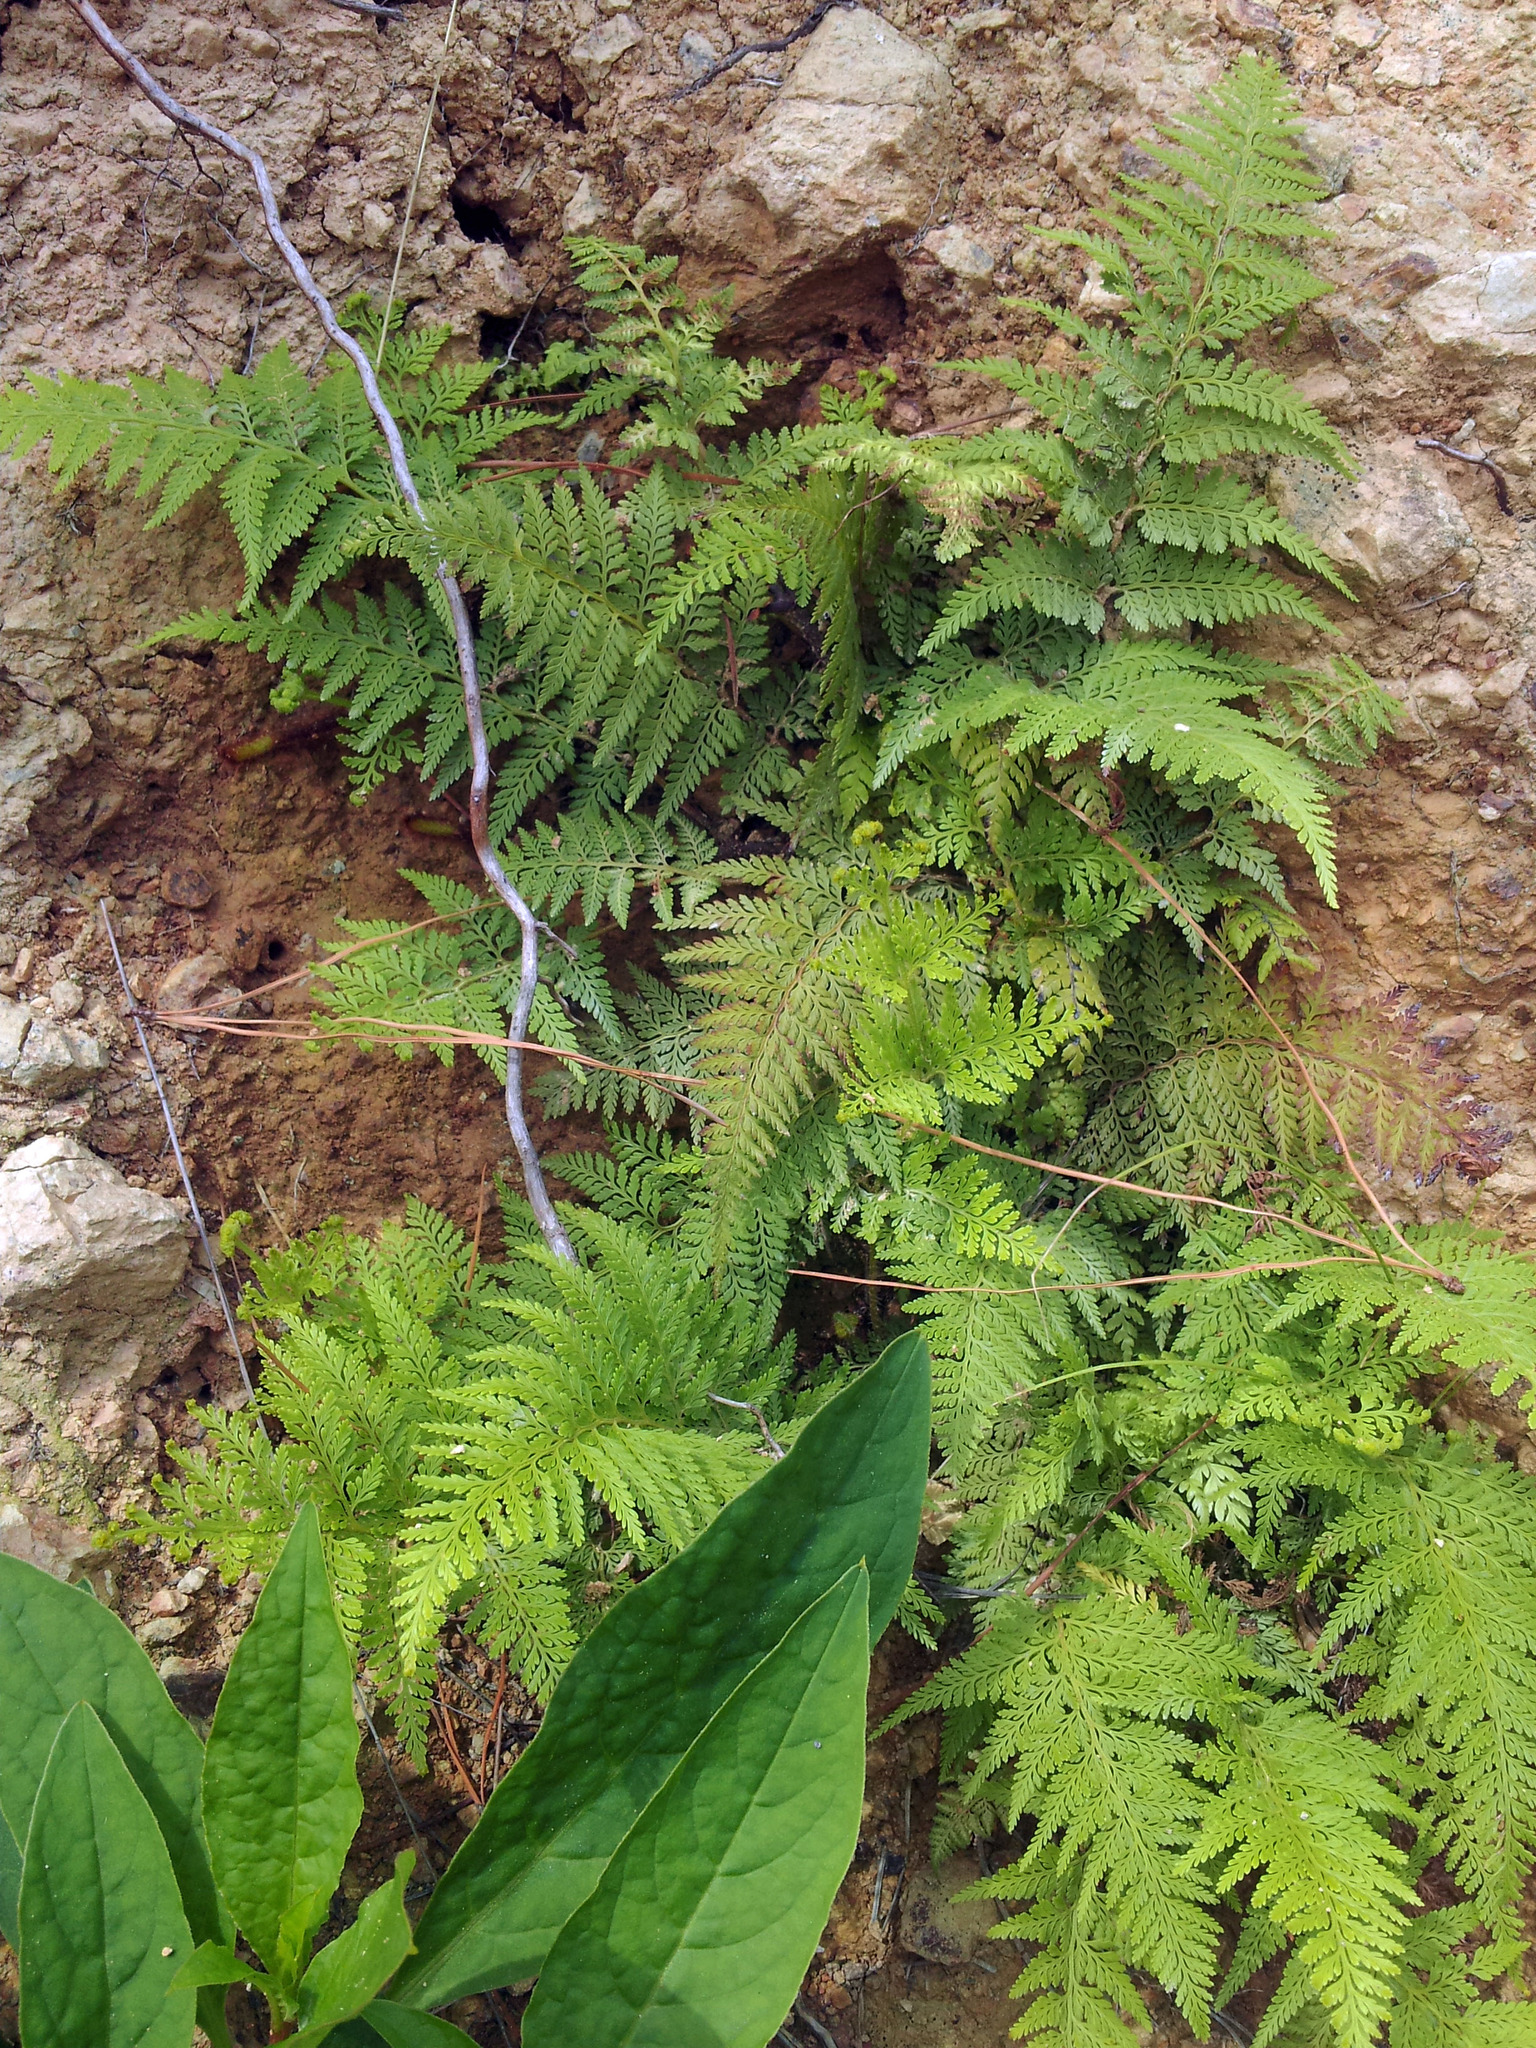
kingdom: Plantae
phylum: Tracheophyta
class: Polypodiopsida
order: Polypodiales
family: Dennstaedtiaceae
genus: Paesia
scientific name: Paesia scaberula
